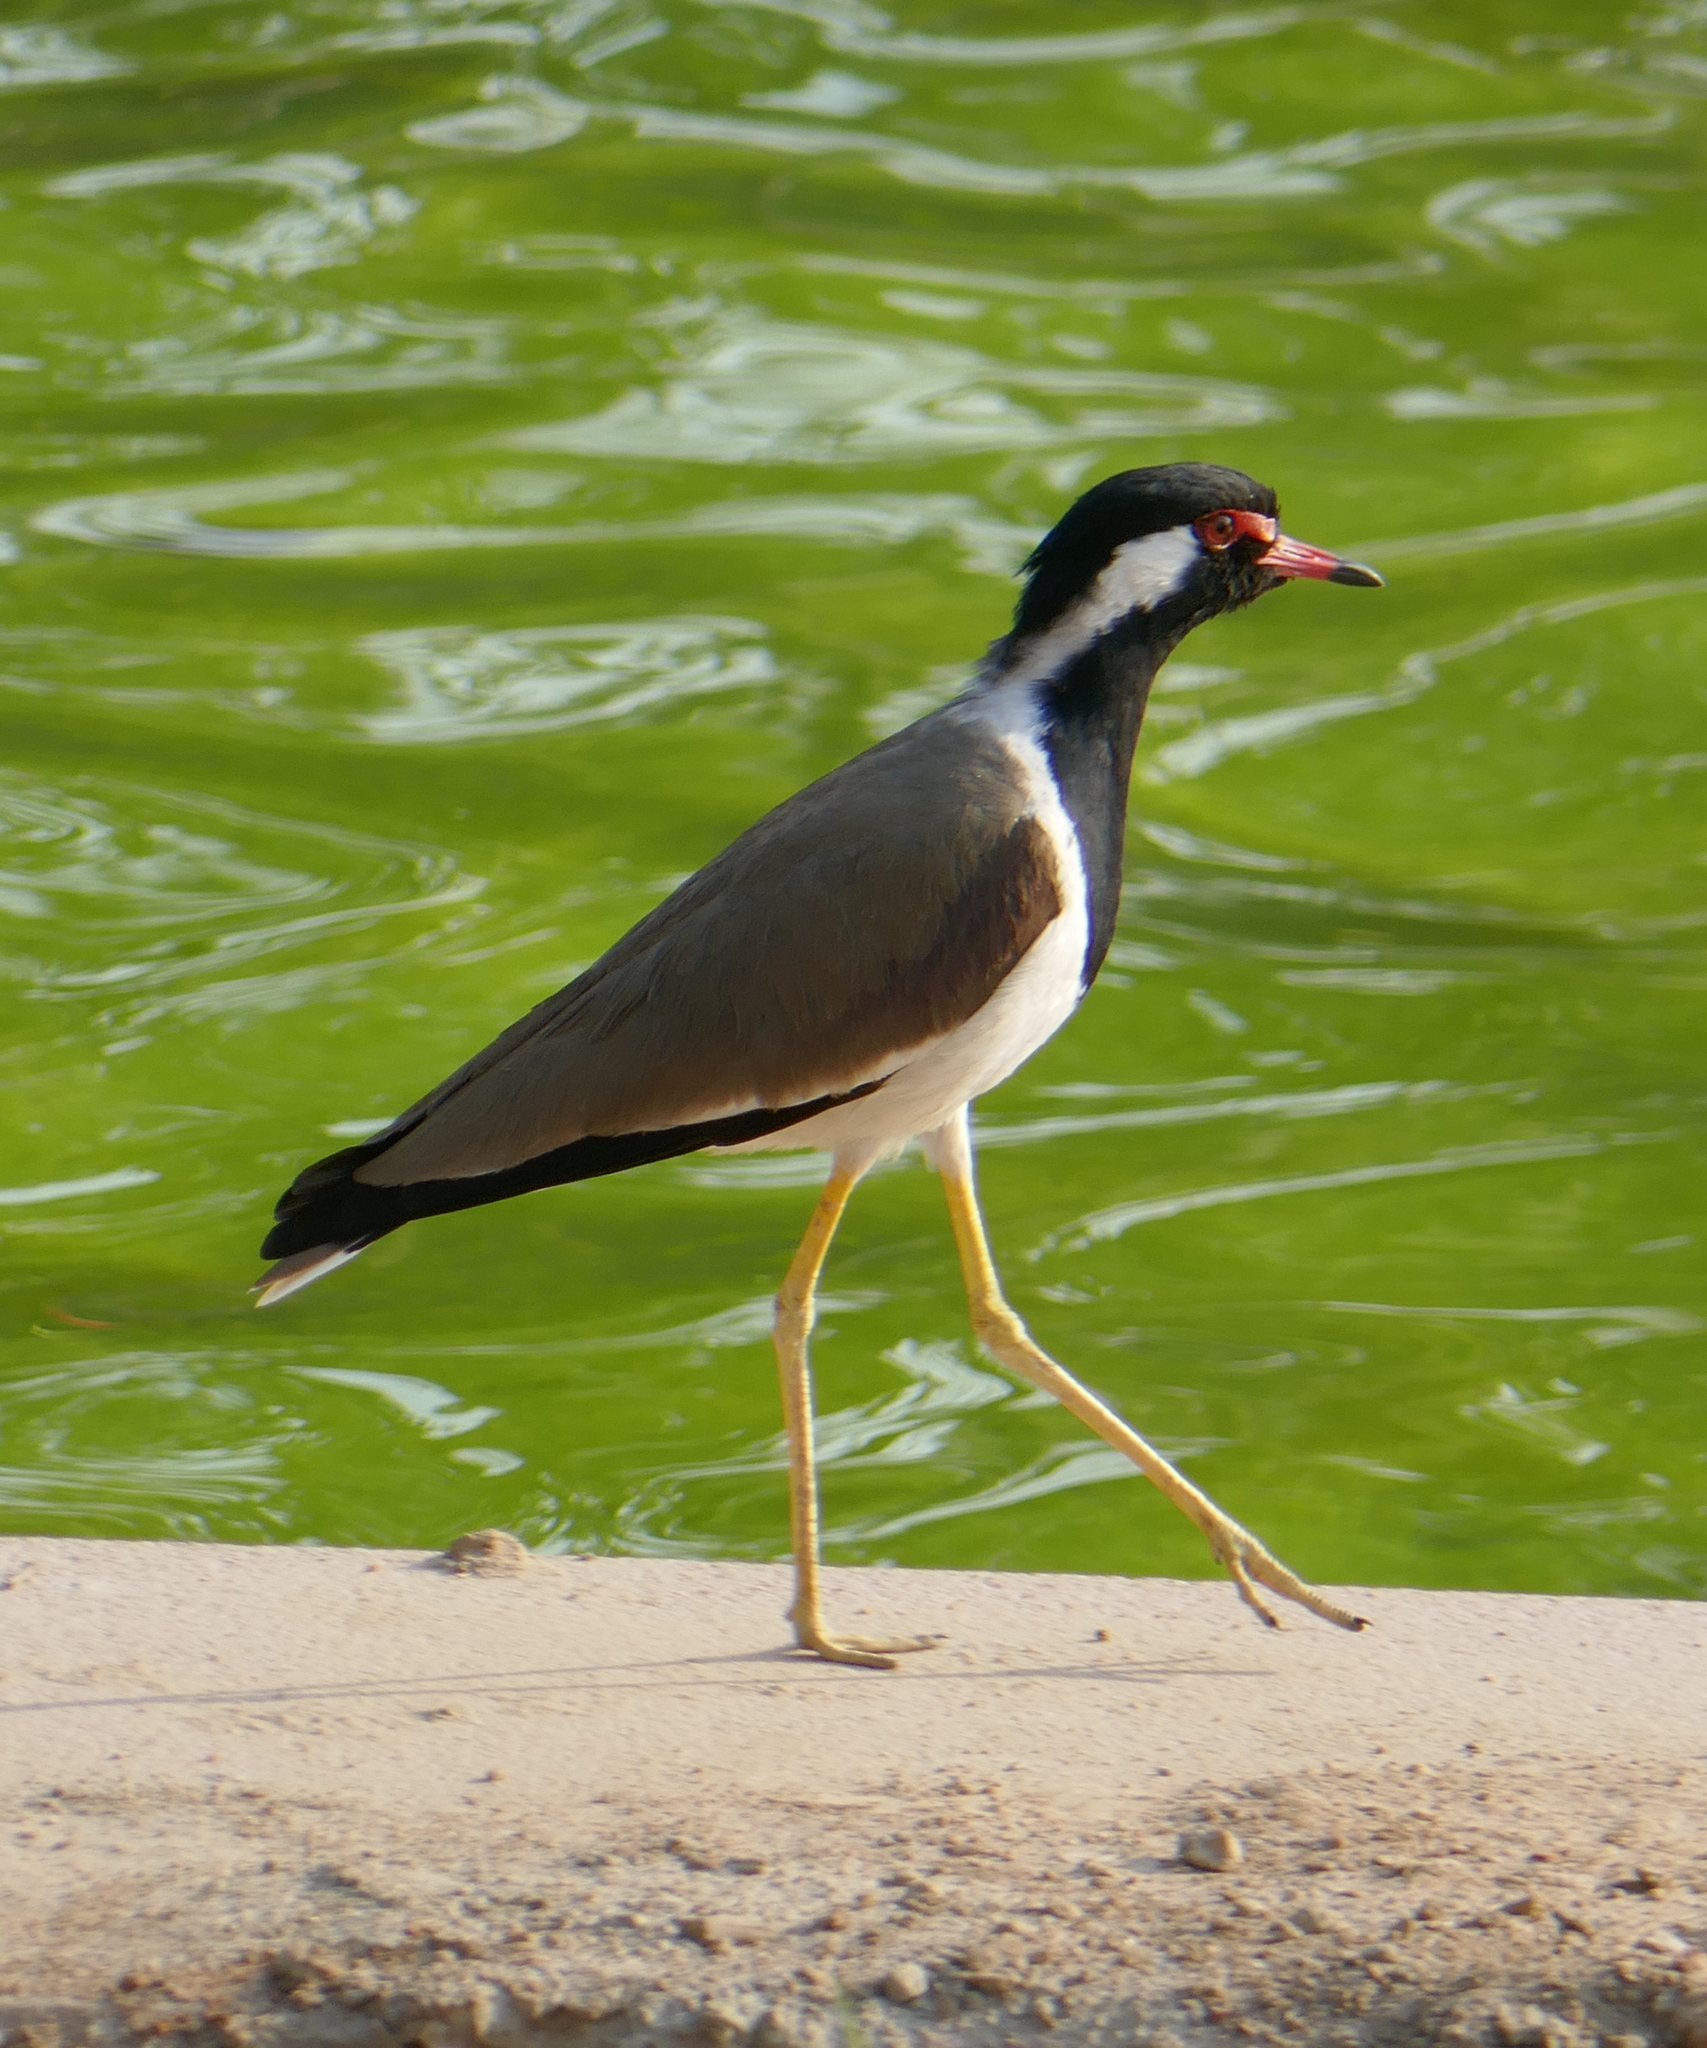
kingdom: Animalia
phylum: Chordata
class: Aves
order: Charadriiformes
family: Charadriidae
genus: Vanellus
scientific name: Vanellus indicus
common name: Red-wattled lapwing
